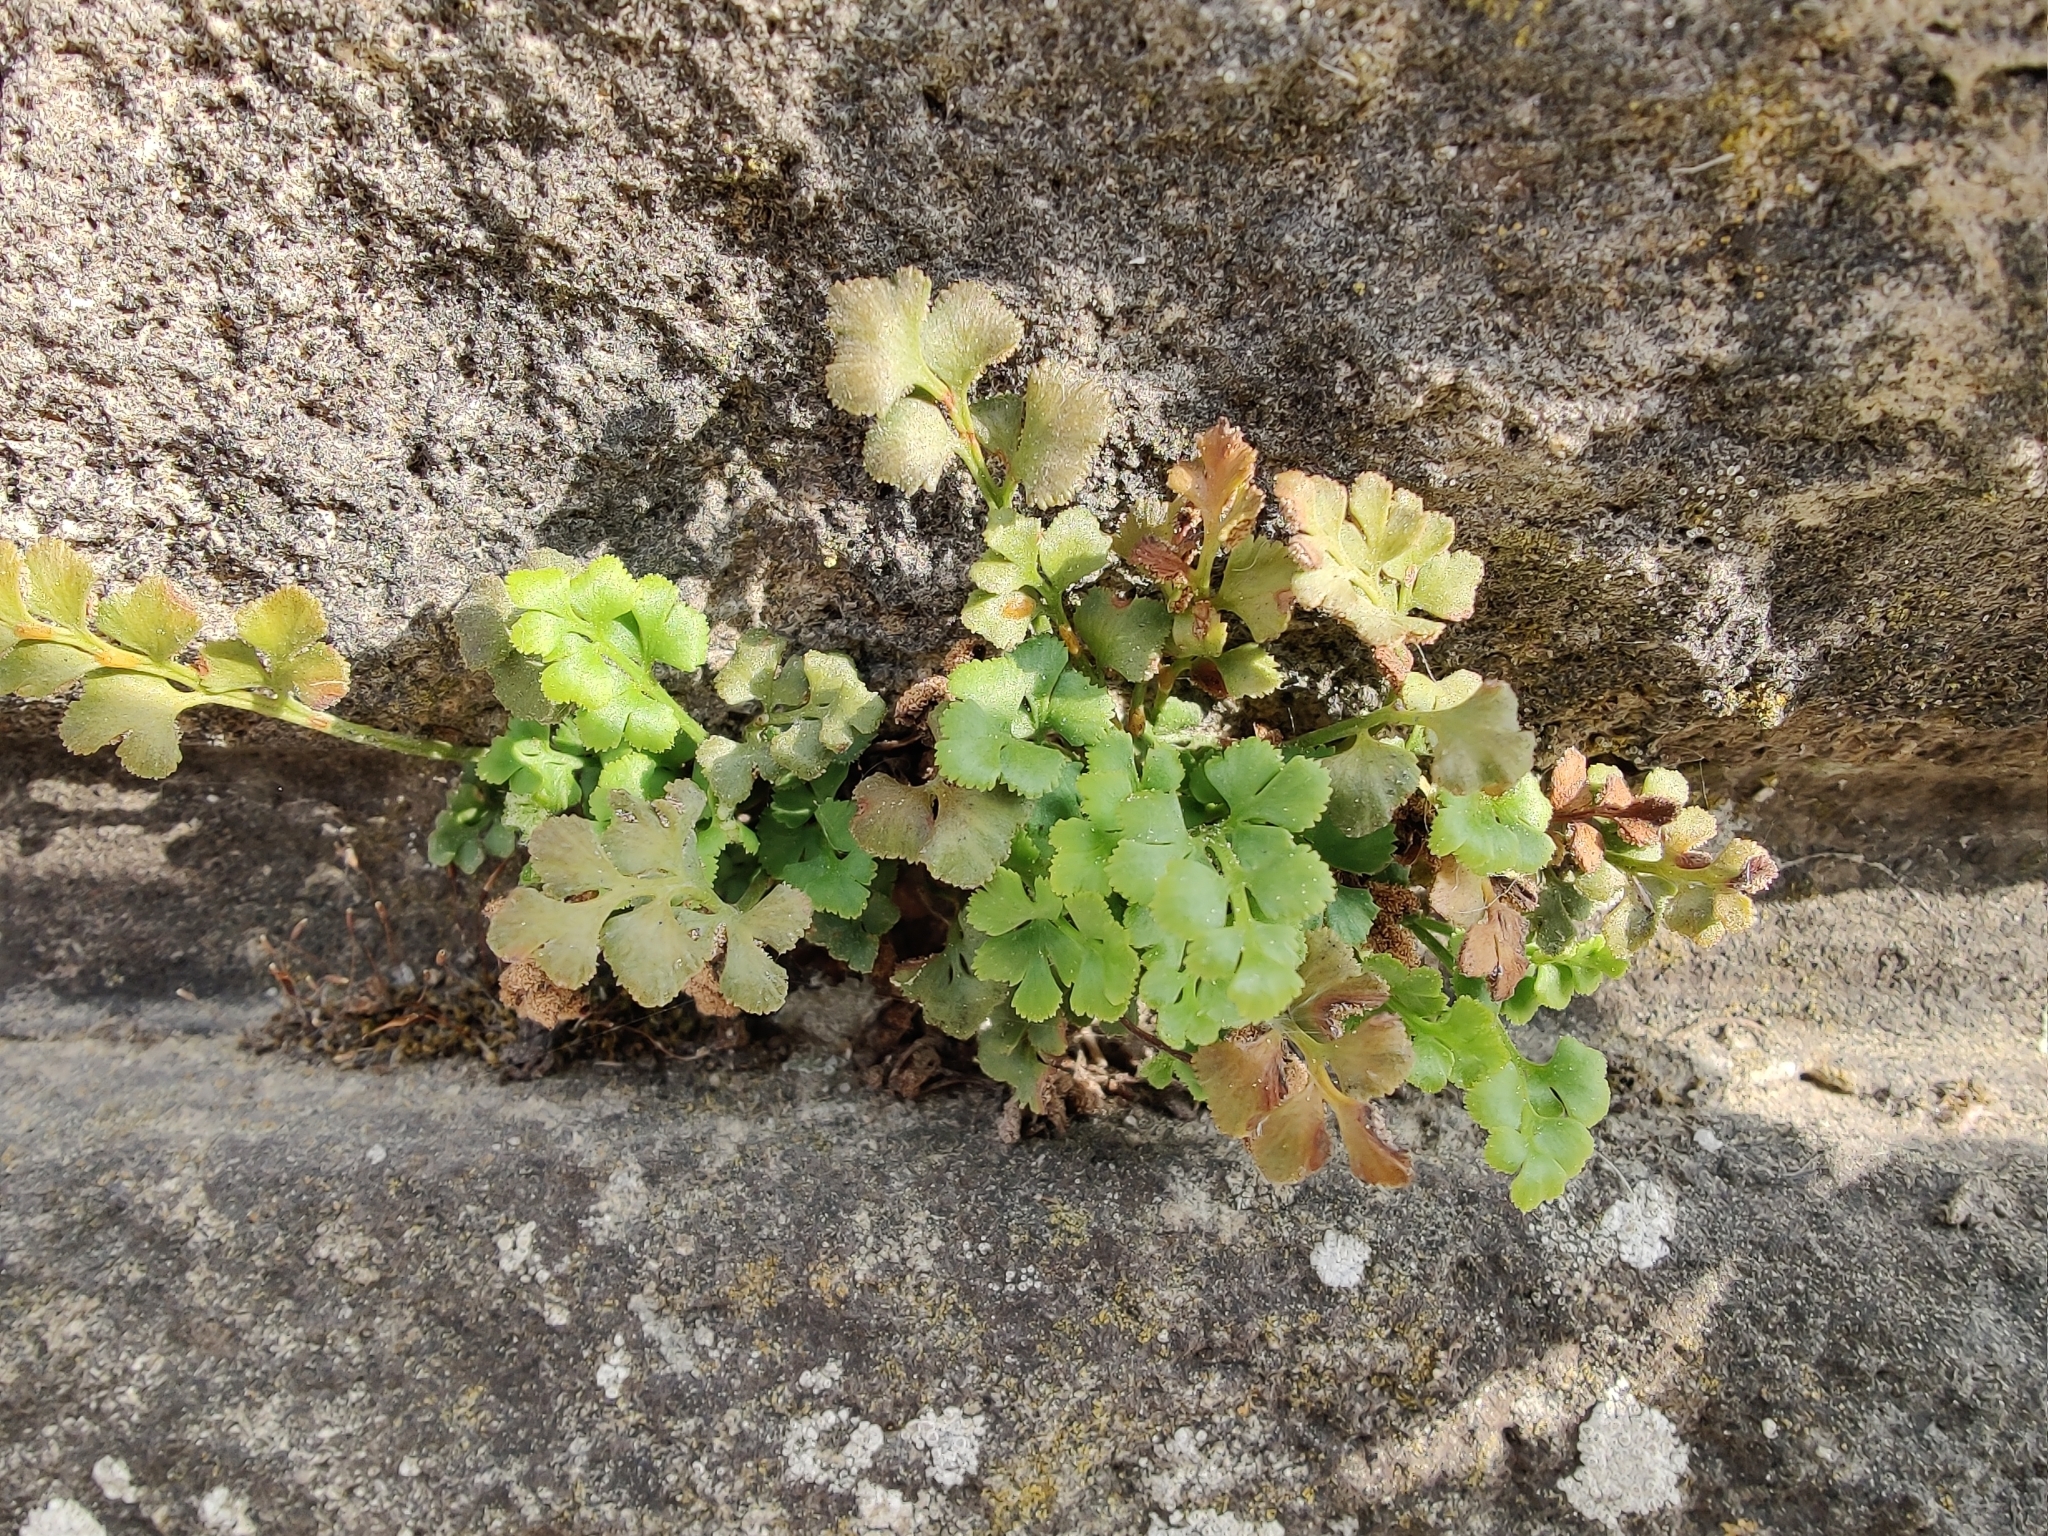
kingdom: Plantae
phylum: Tracheophyta
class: Polypodiopsida
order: Polypodiales
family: Aspleniaceae
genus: Asplenium
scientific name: Asplenium ruta-muraria
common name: Wall-rue
